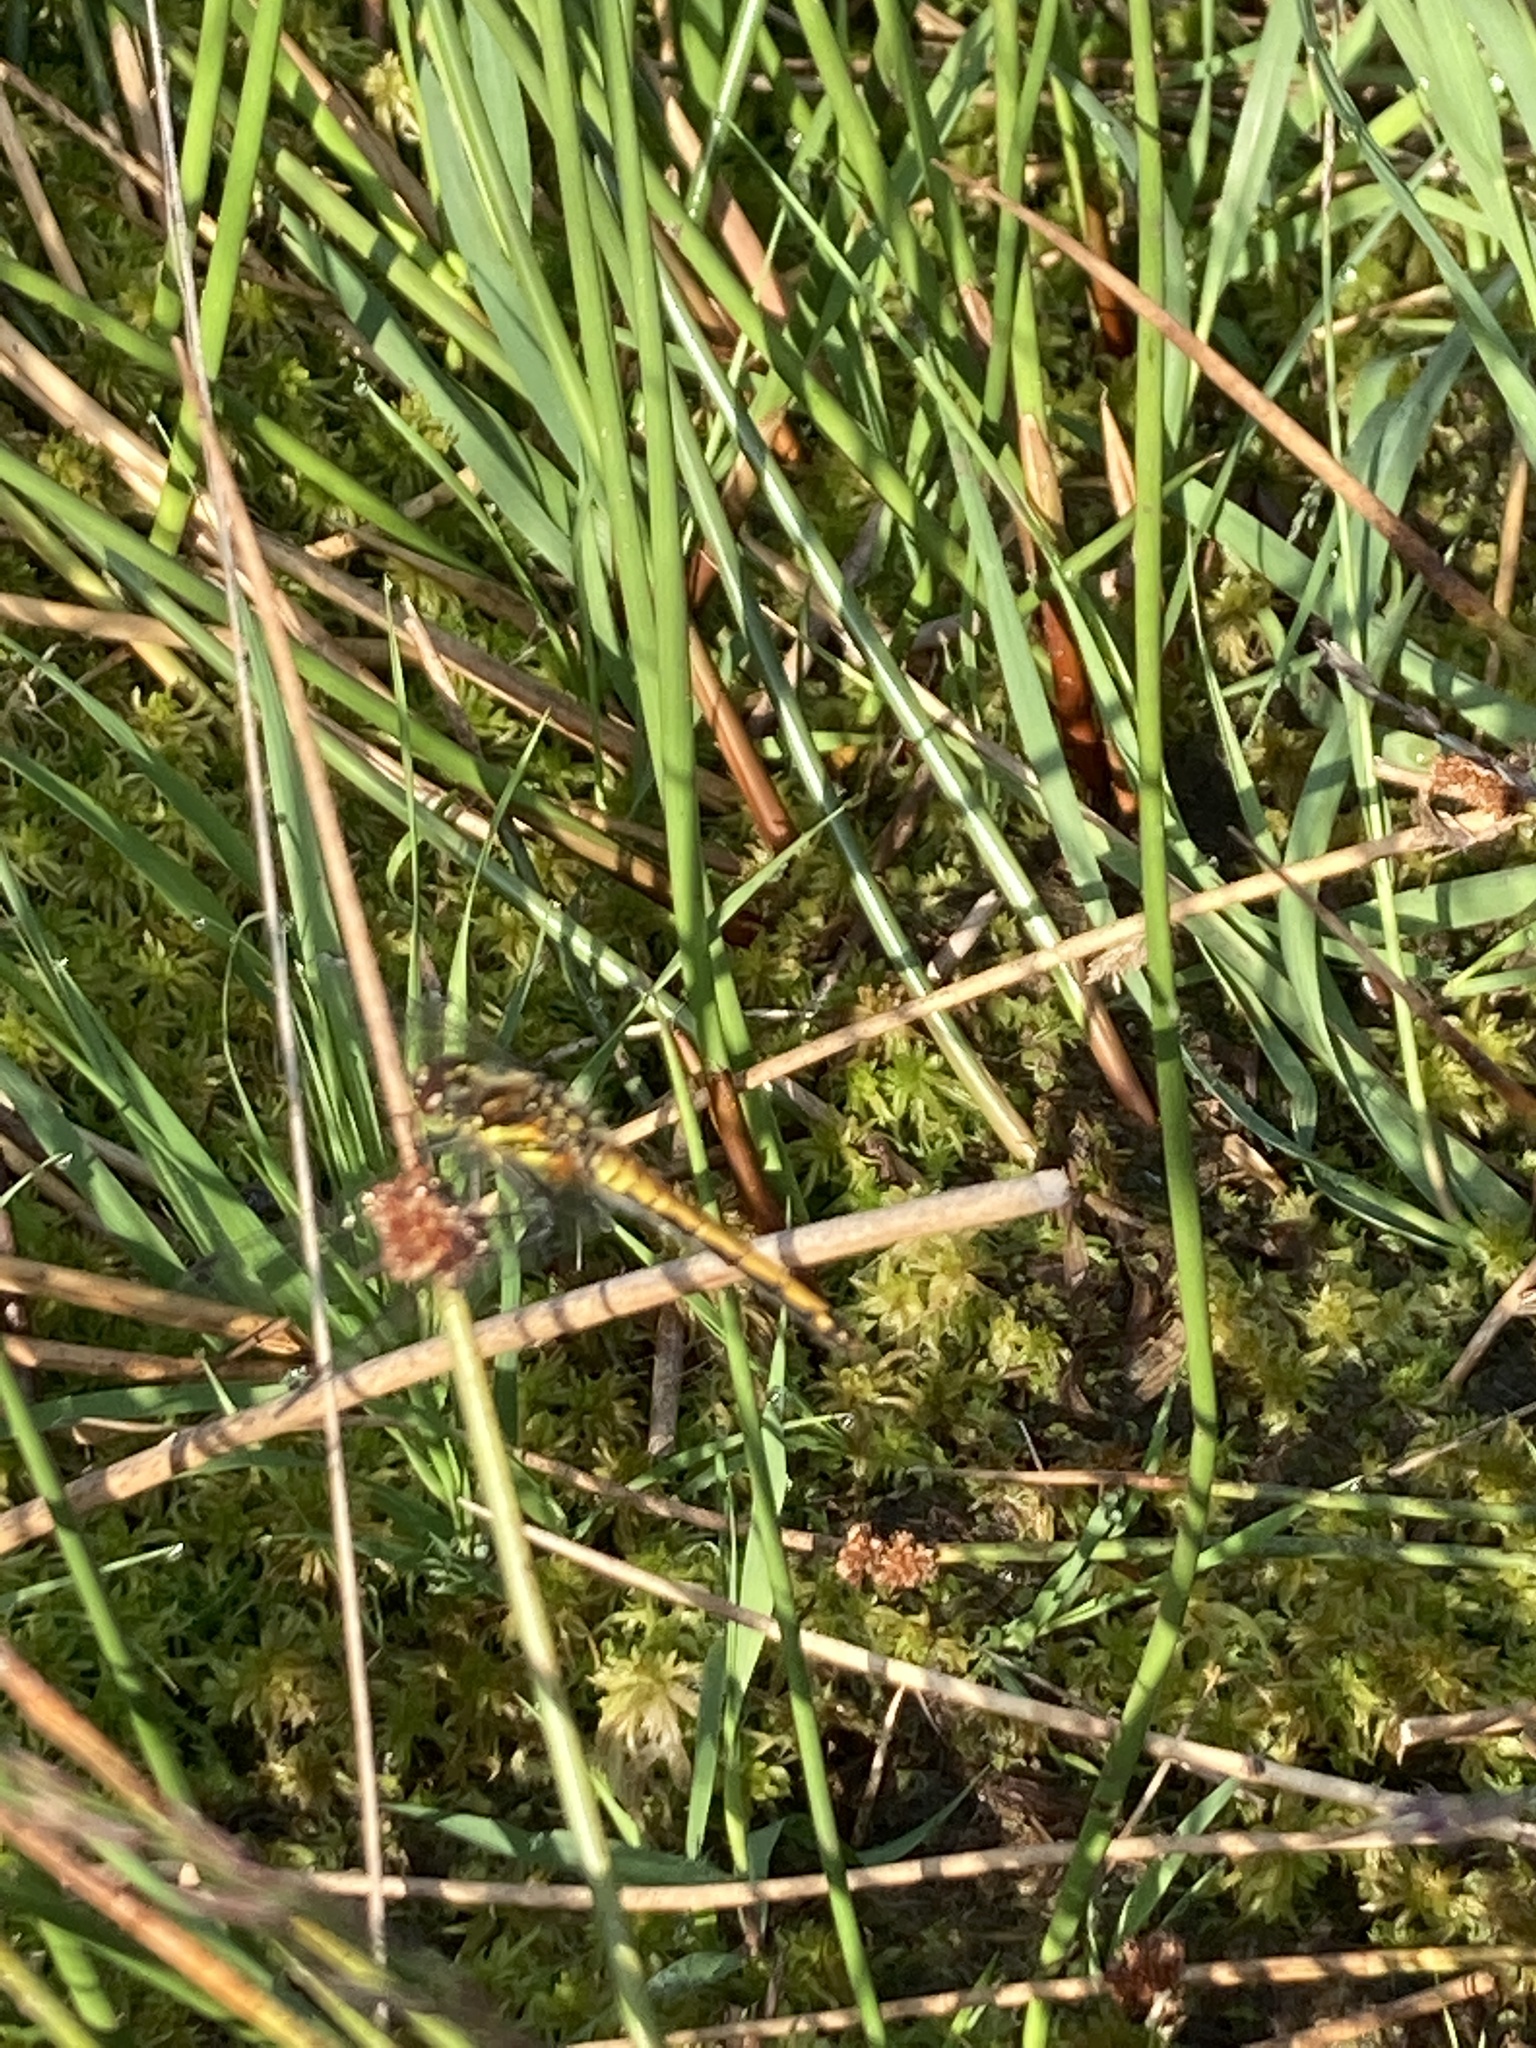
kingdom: Animalia
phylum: Arthropoda
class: Insecta
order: Odonata
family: Libellulidae
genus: Sympetrum
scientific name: Sympetrum danae
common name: Black darter
